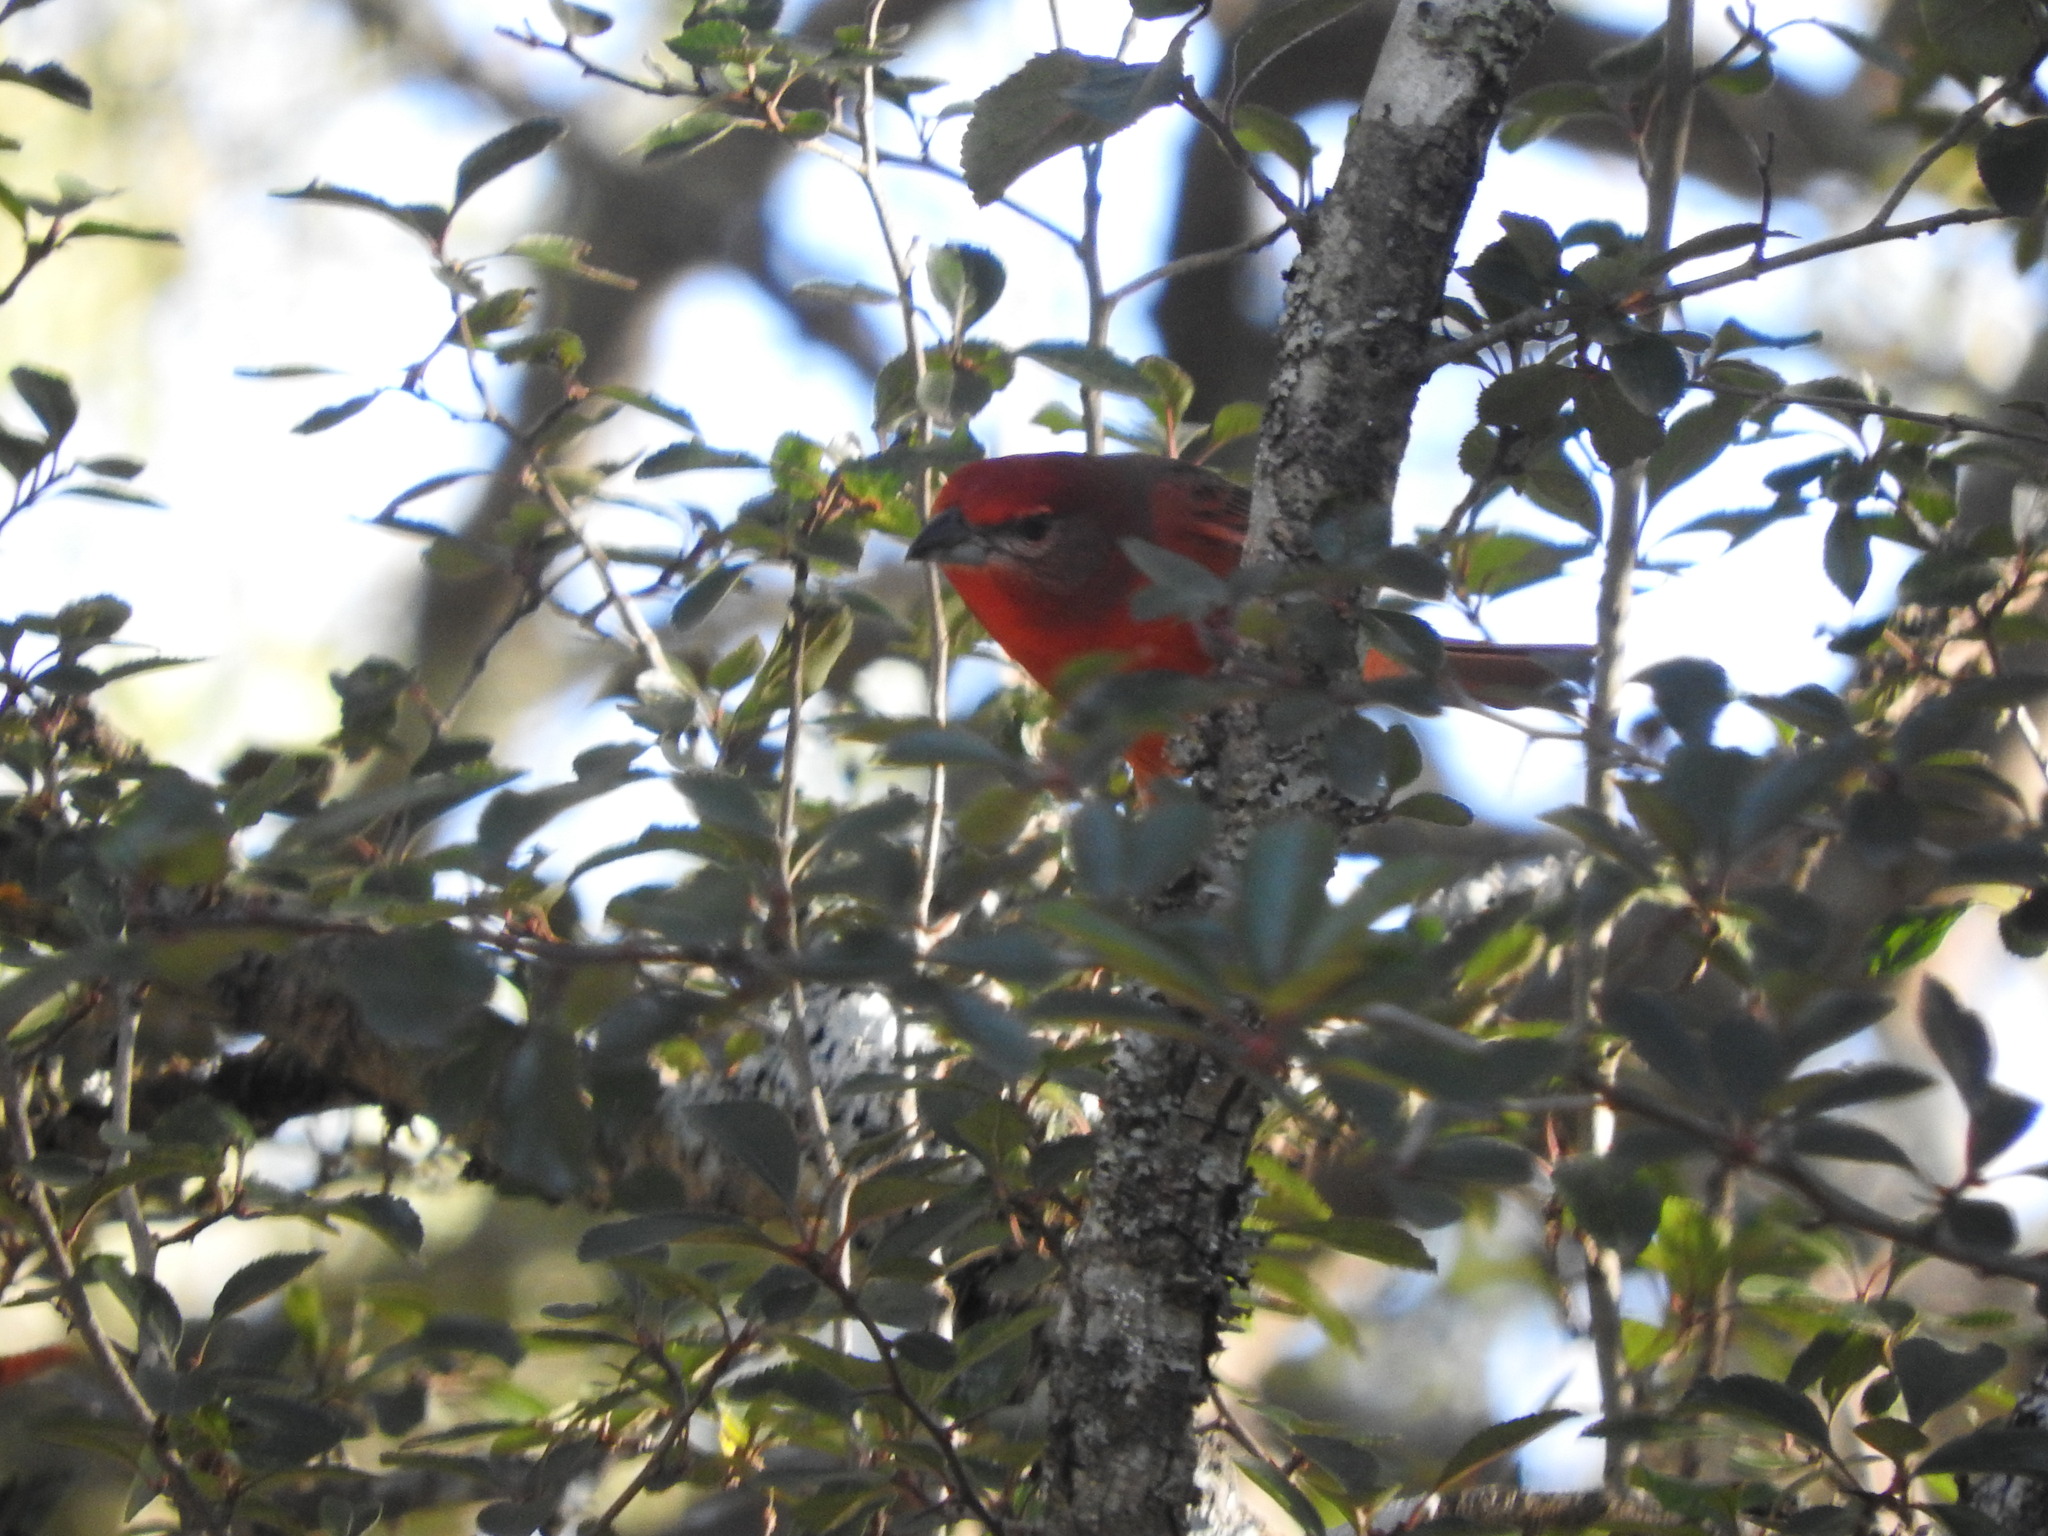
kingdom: Animalia
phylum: Chordata
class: Aves
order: Passeriformes
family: Cardinalidae
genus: Piranga
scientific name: Piranga flava
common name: Red tanager
